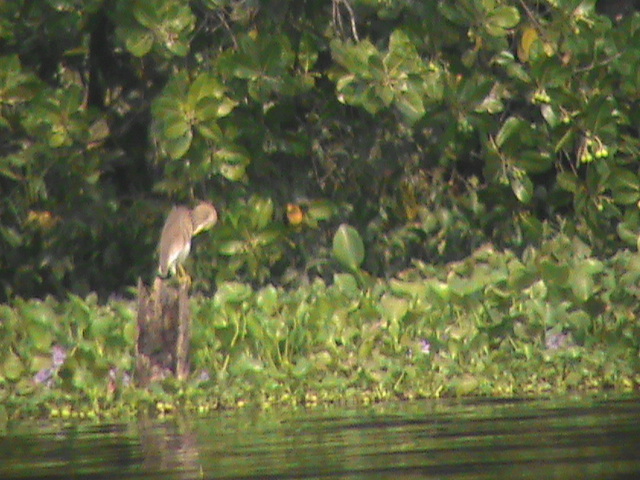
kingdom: Animalia
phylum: Chordata
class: Aves
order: Pelecaniformes
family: Ardeidae
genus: Ardeola
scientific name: Ardeola grayii
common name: Indian pond heron
